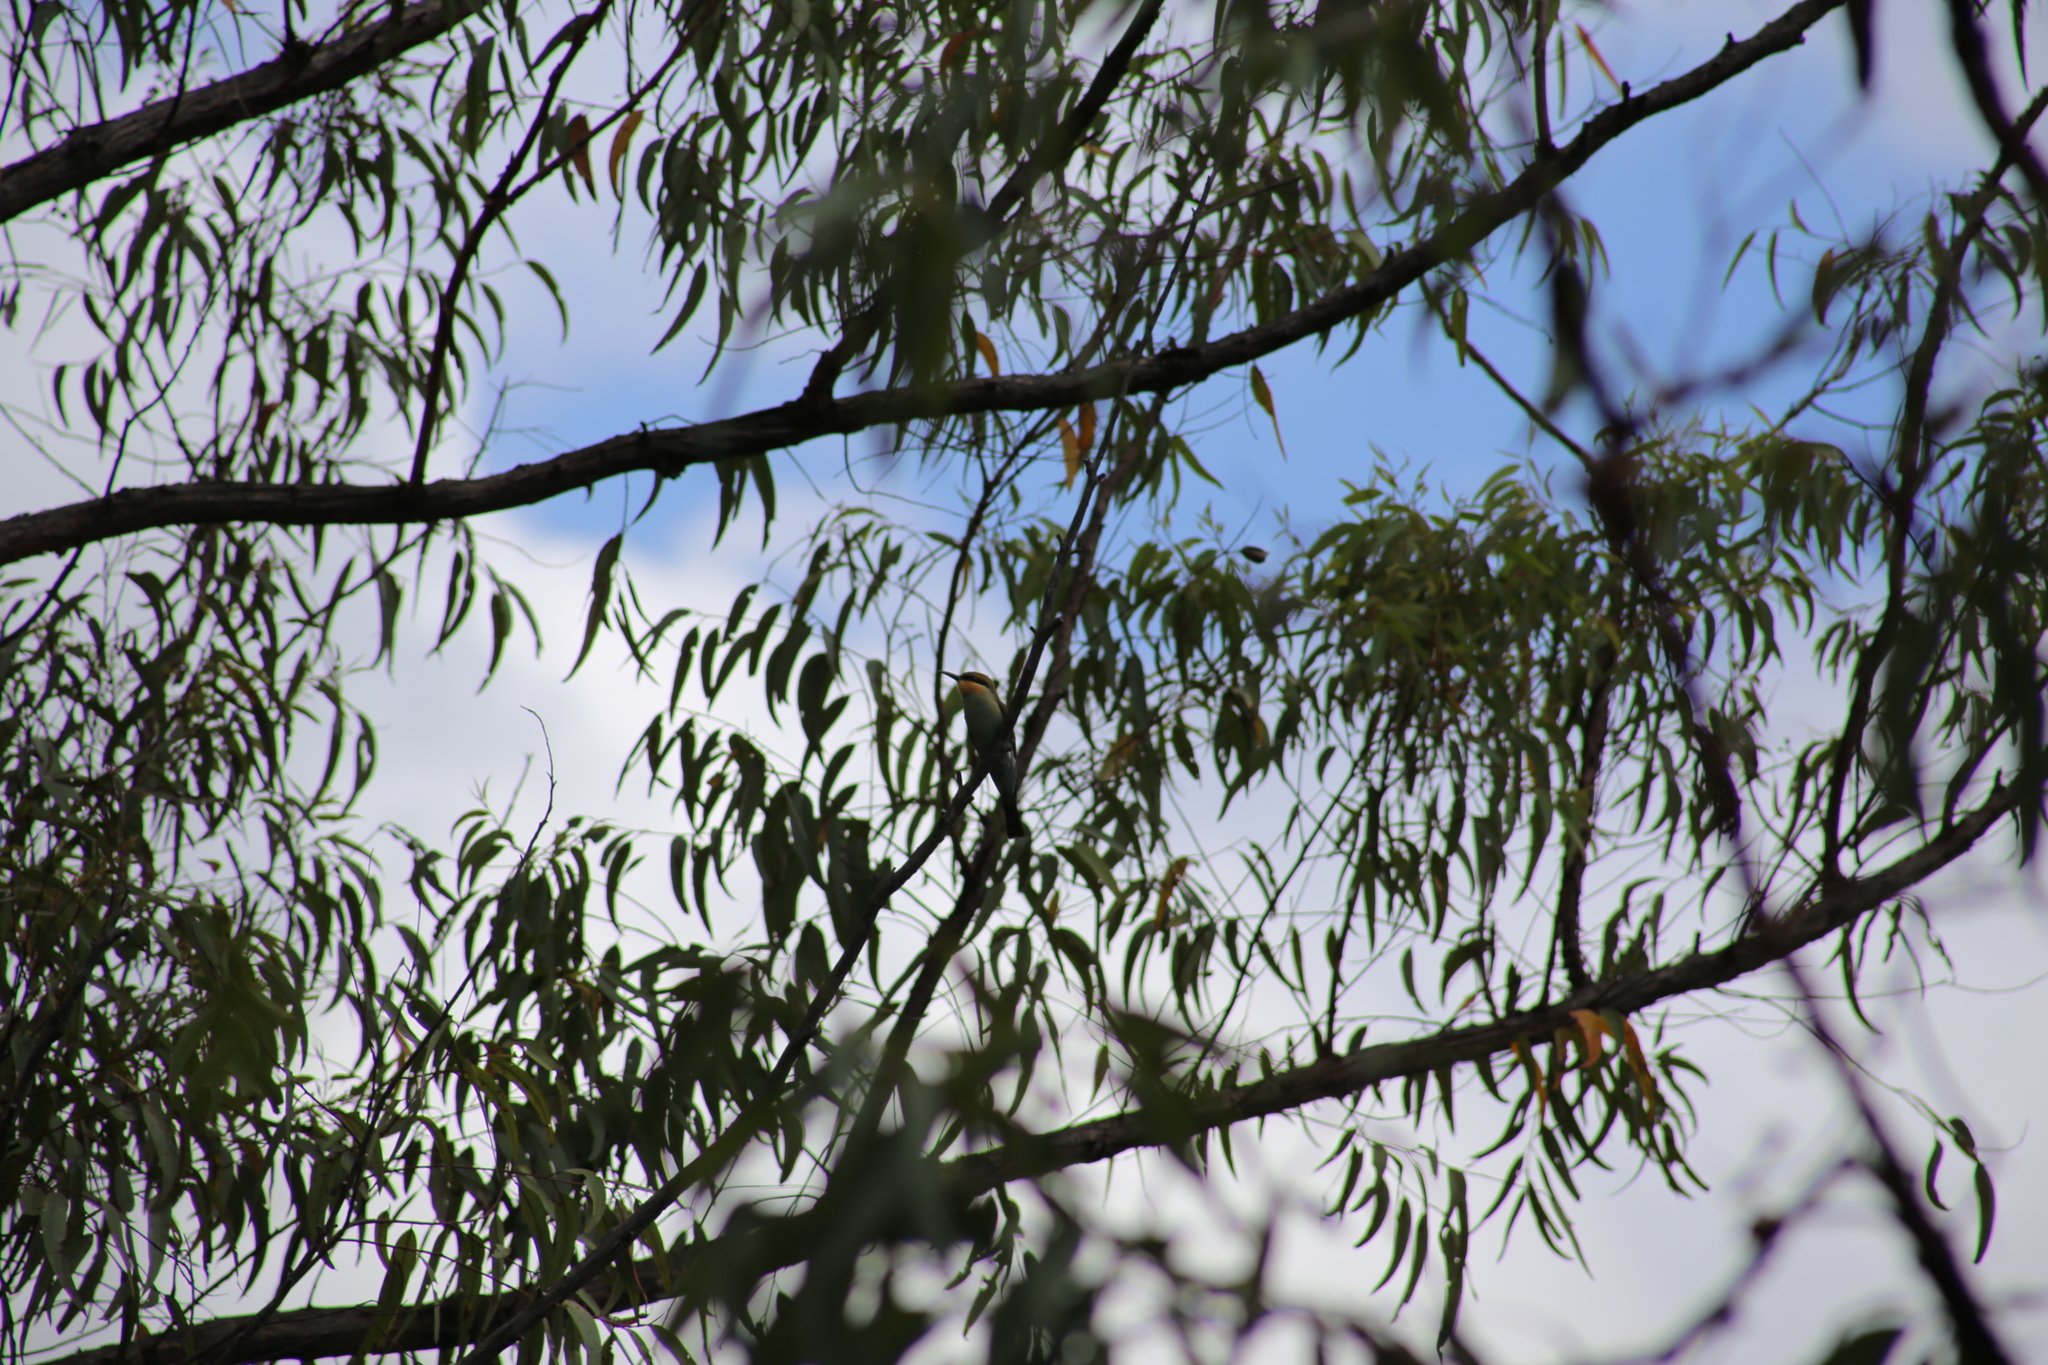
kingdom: Animalia
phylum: Chordata
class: Aves
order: Coraciiformes
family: Meropidae
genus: Merops
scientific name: Merops ornatus
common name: Rainbow bee-eater
